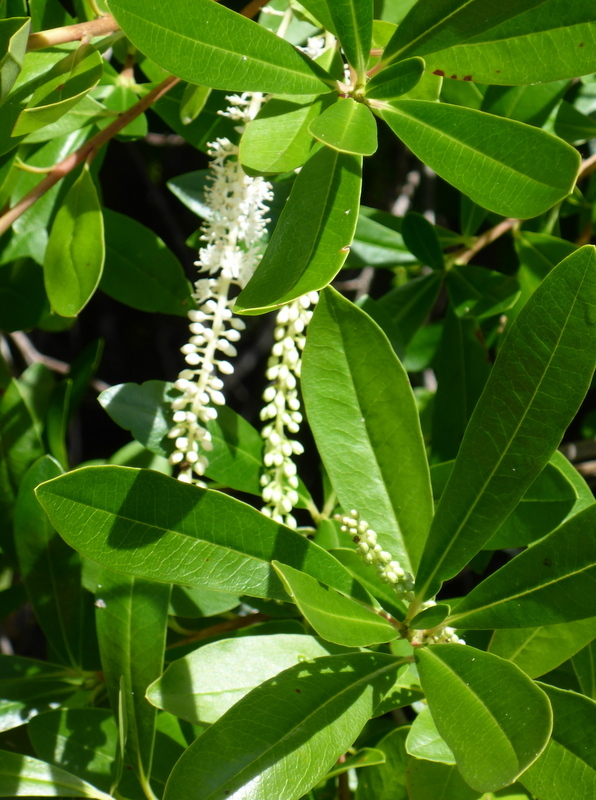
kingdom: Plantae
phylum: Tracheophyta
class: Magnoliopsida
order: Ericales
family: Cyrillaceae
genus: Cyrilla
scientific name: Cyrilla racemiflora
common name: Black titi
